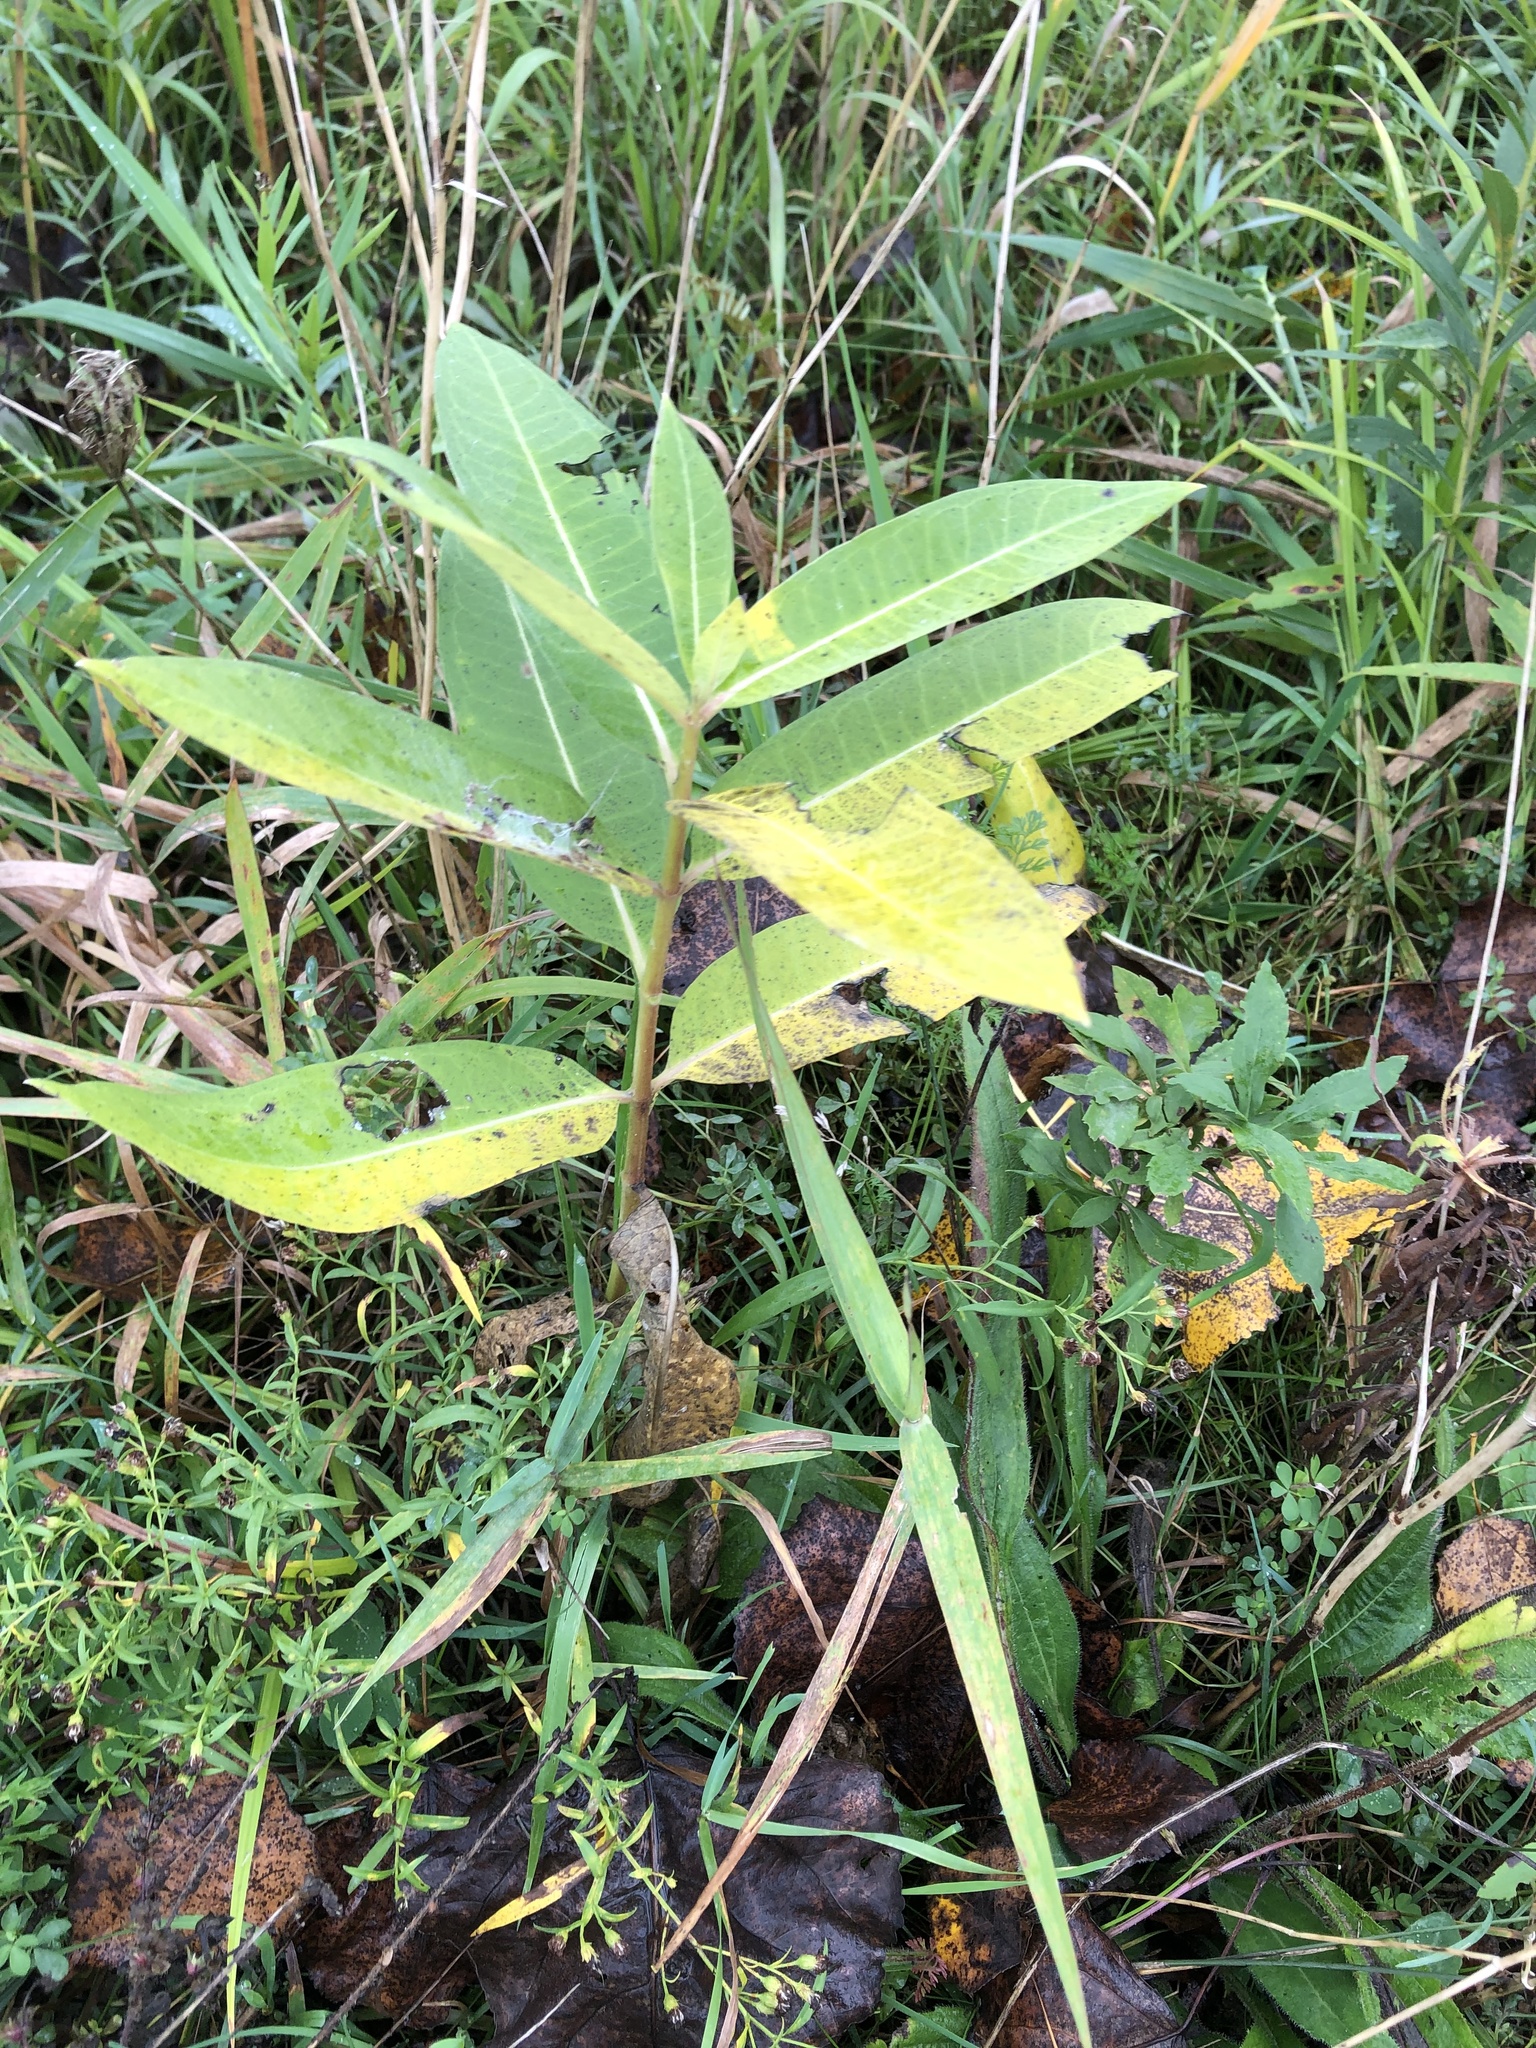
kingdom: Plantae
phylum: Tracheophyta
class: Magnoliopsida
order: Gentianales
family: Apocynaceae
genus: Asclepias
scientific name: Asclepias syriaca
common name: Common milkweed
